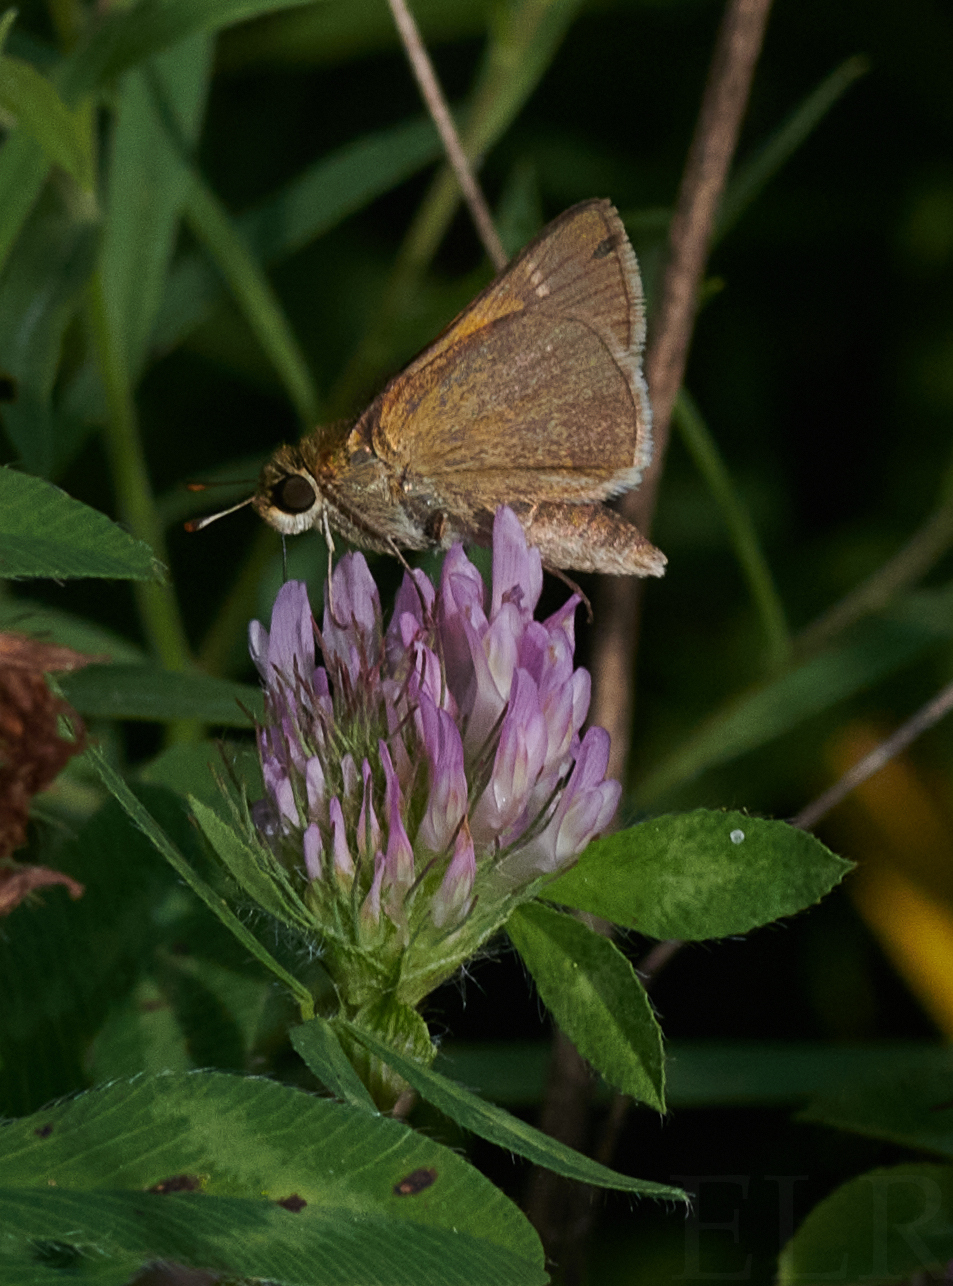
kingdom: Animalia
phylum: Arthropoda
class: Insecta
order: Lepidoptera
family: Hesperiidae
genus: Polites
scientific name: Polites themistocles
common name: Tawny-edged skipper
